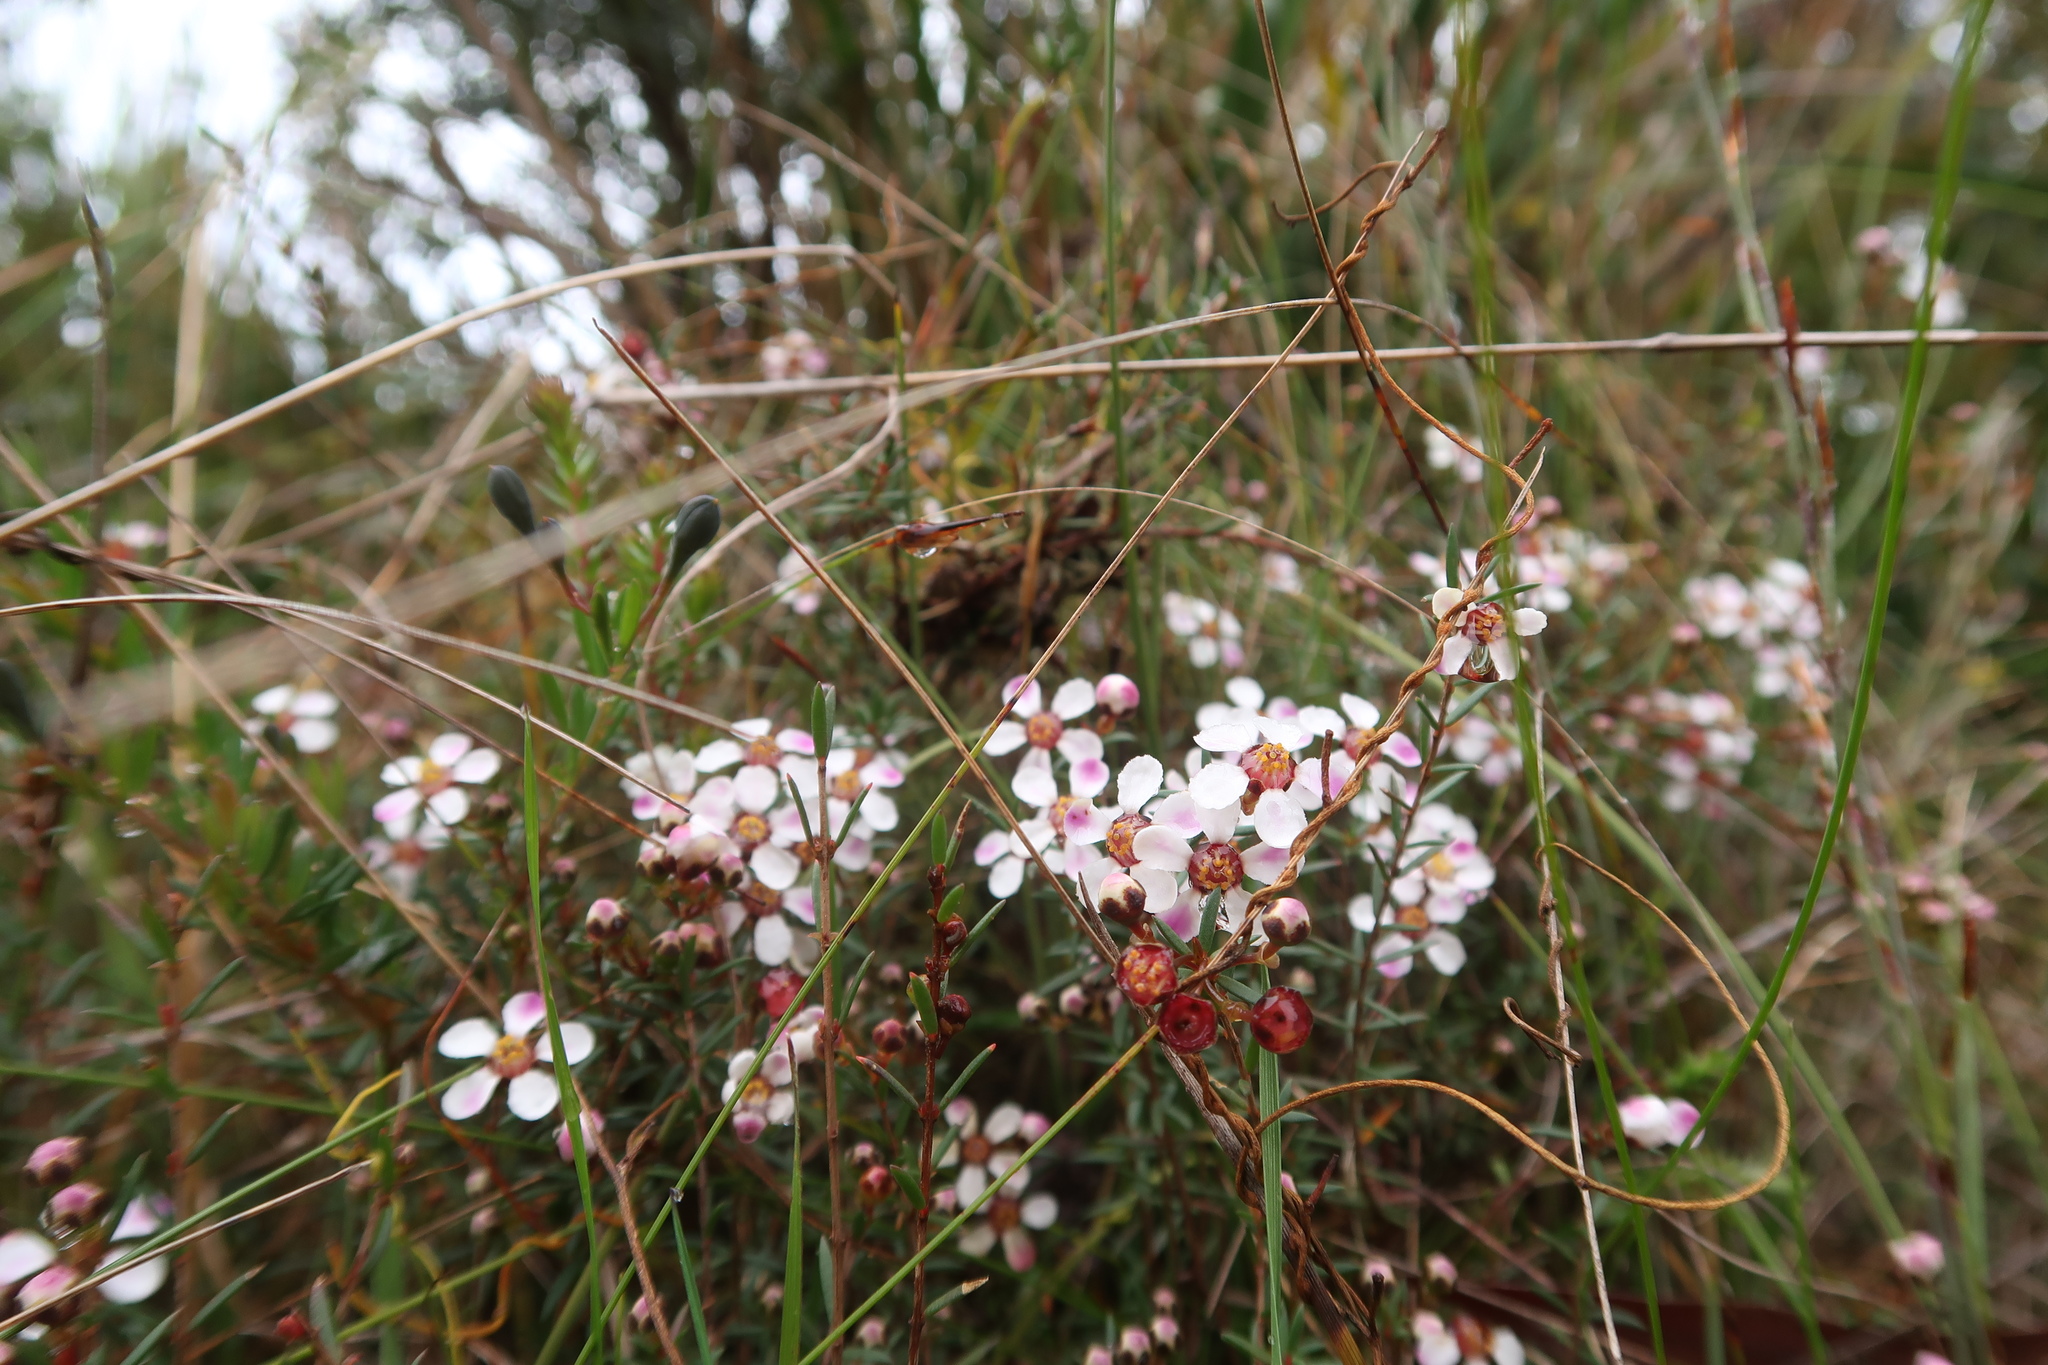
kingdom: Plantae
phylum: Tracheophyta
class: Magnoliopsida
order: Myrtales
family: Myrtaceae
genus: Euryomyrtus
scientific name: Euryomyrtus ramosissima
